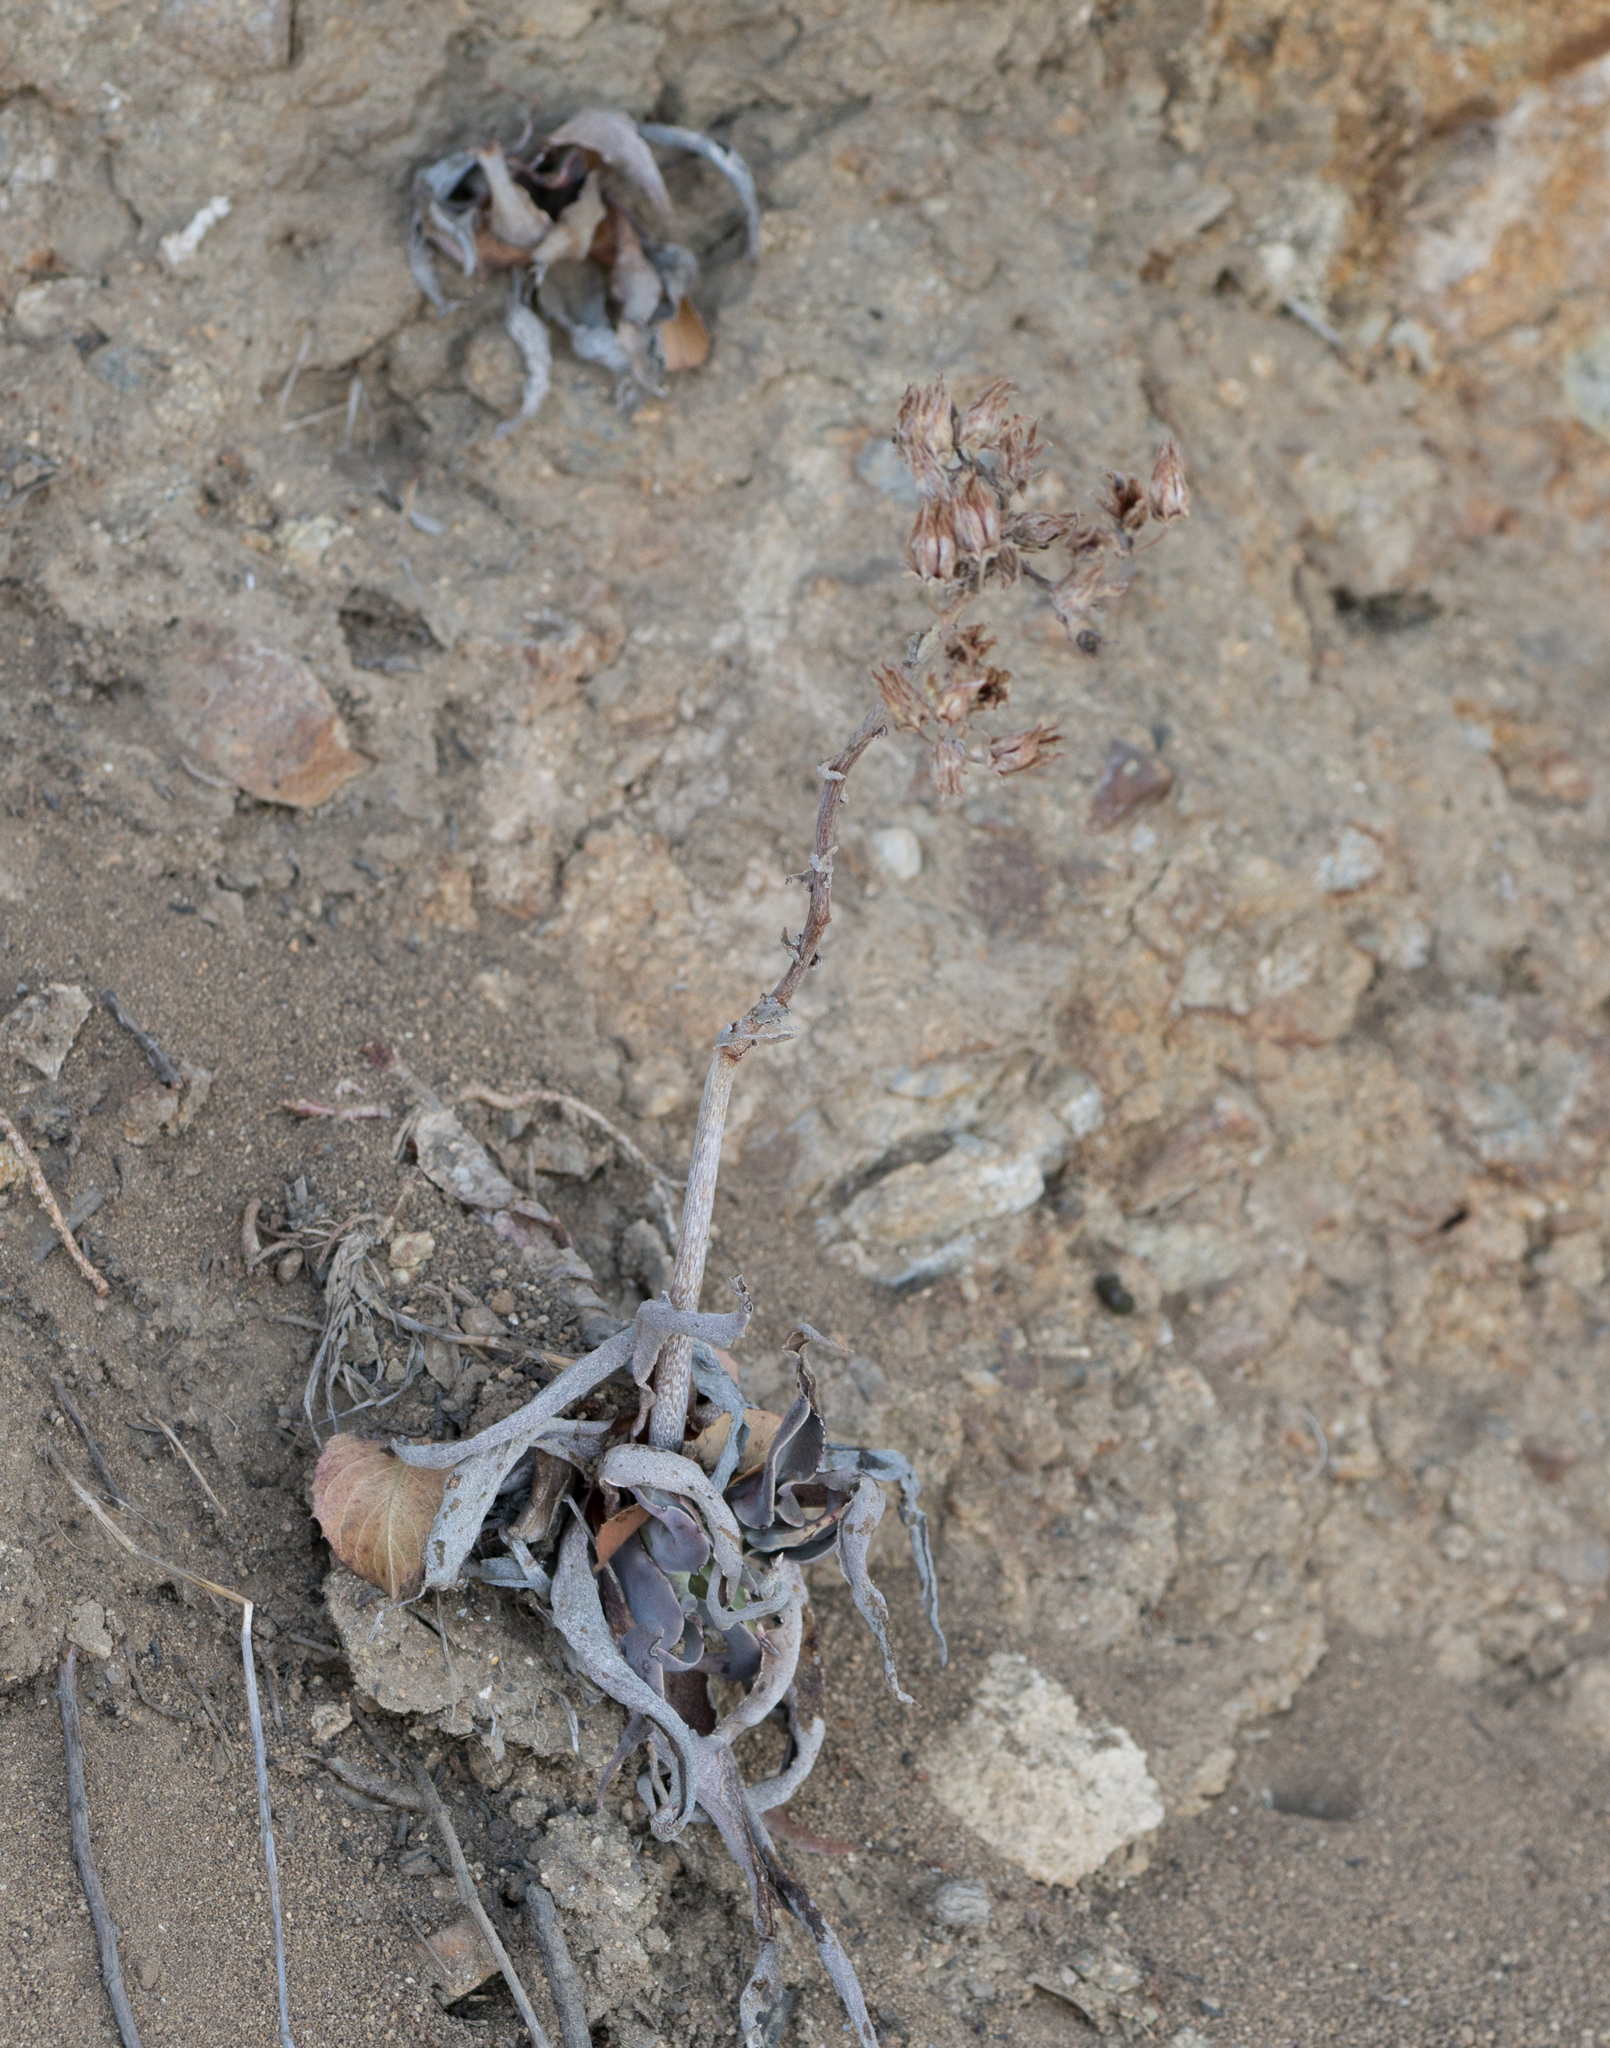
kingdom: Plantae
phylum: Tracheophyta
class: Magnoliopsida
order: Saxifragales
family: Crassulaceae
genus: Dudleya
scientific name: Dudleya lanceolata
